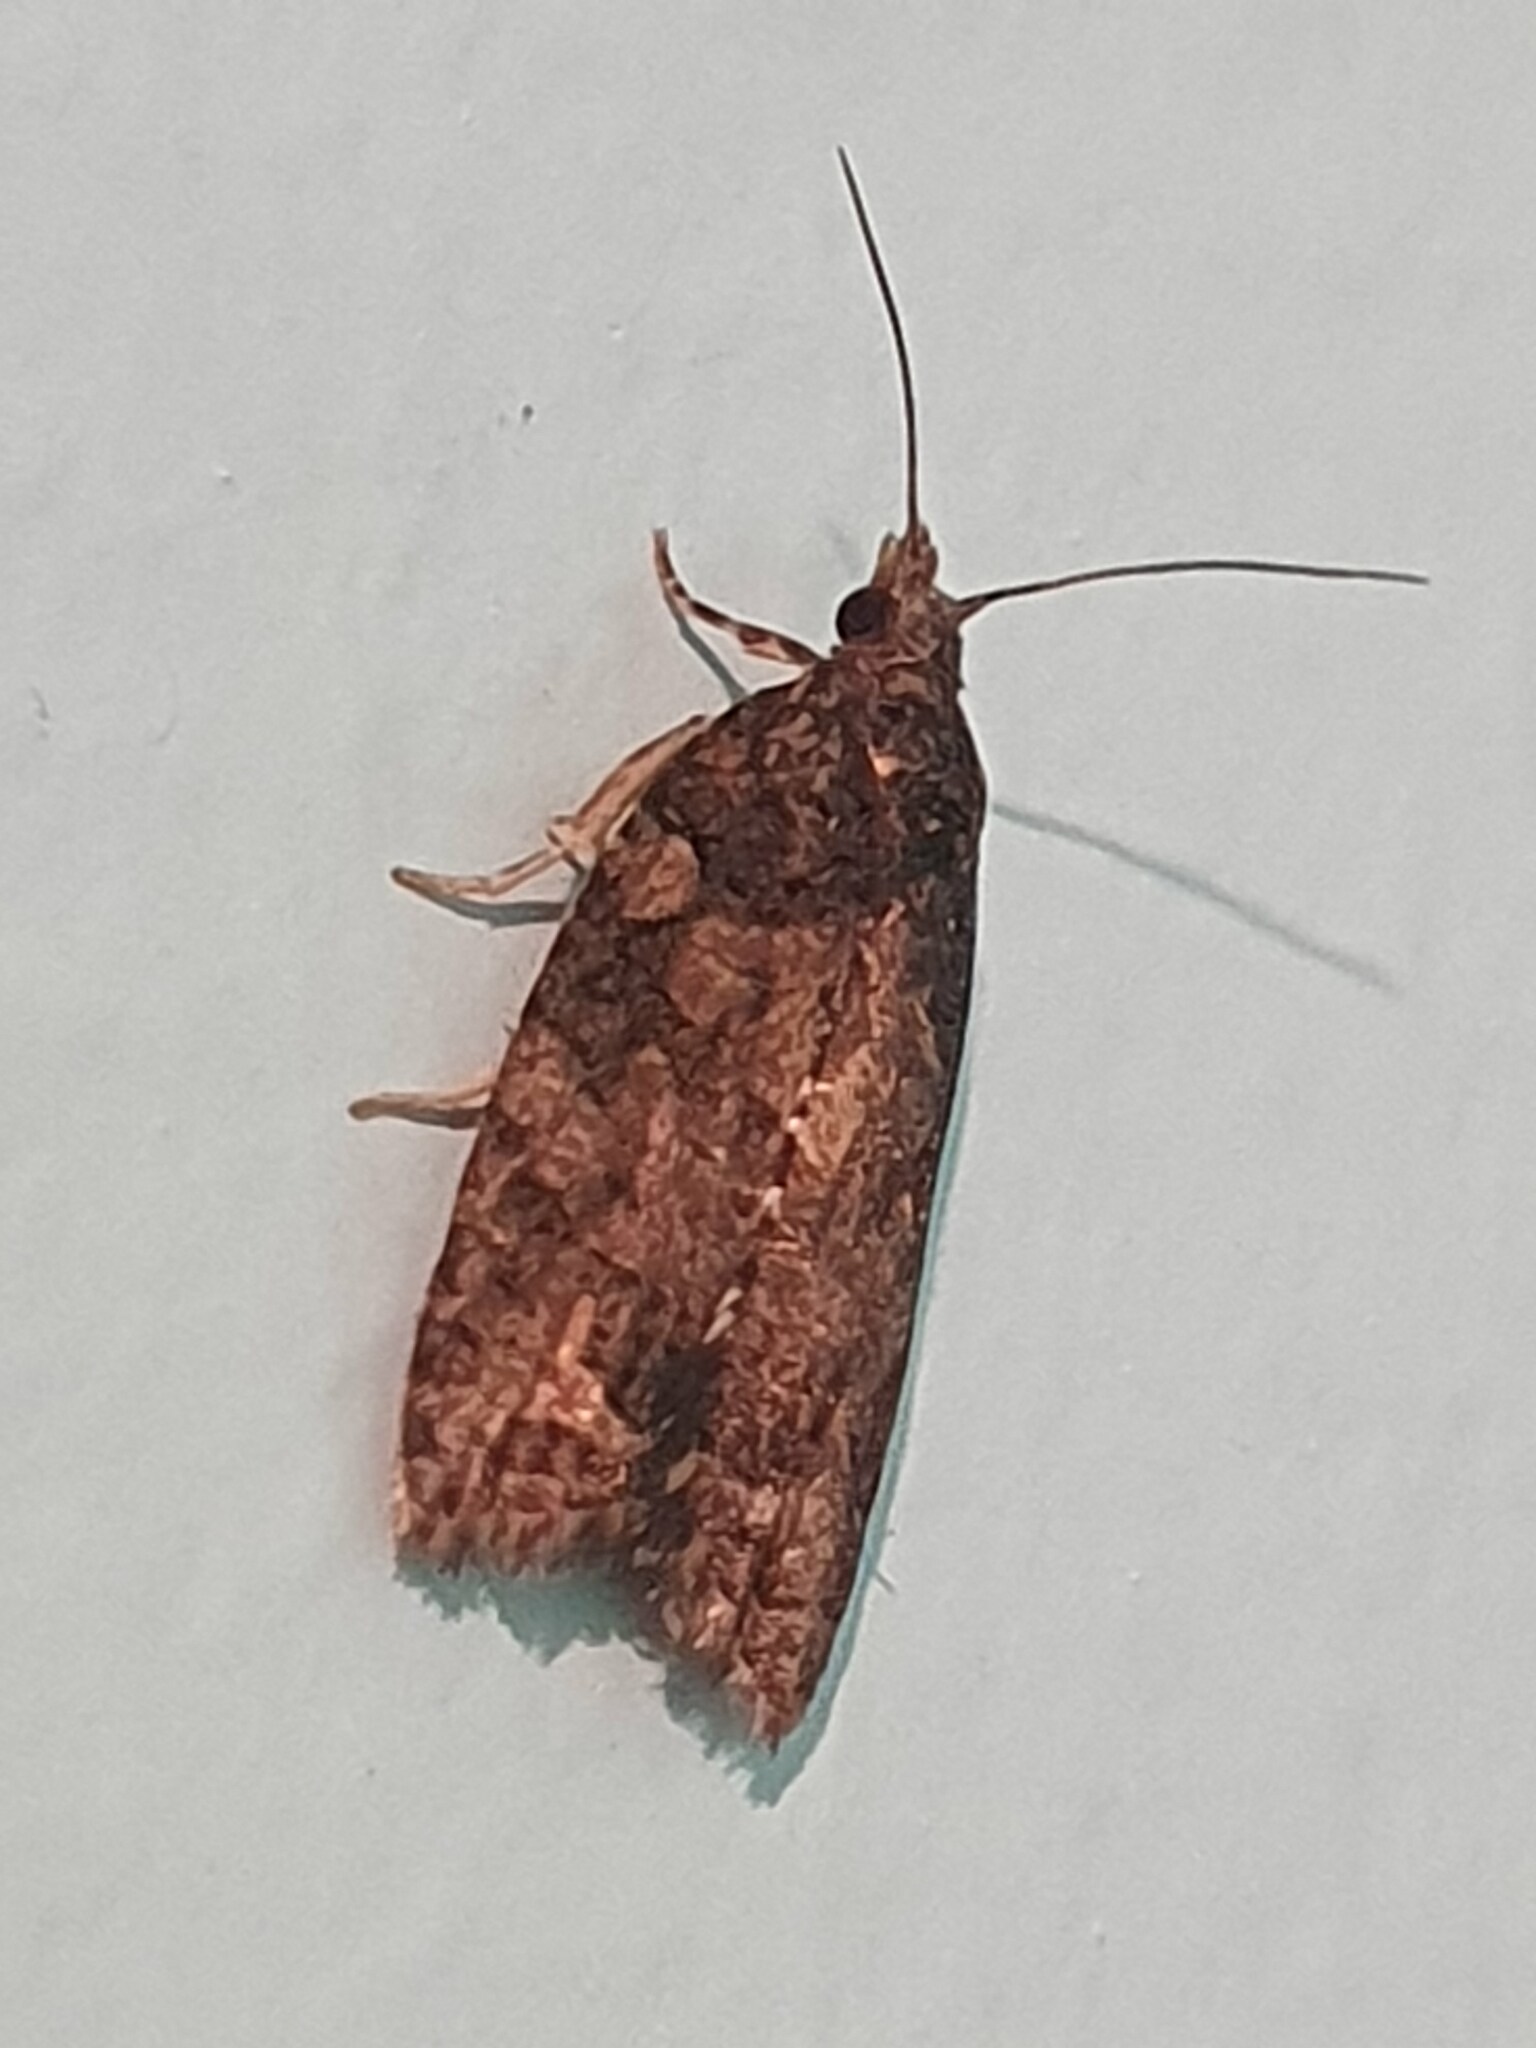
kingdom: Animalia
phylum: Arthropoda
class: Insecta
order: Lepidoptera
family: Tortricidae
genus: Capua
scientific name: Capua intractana
